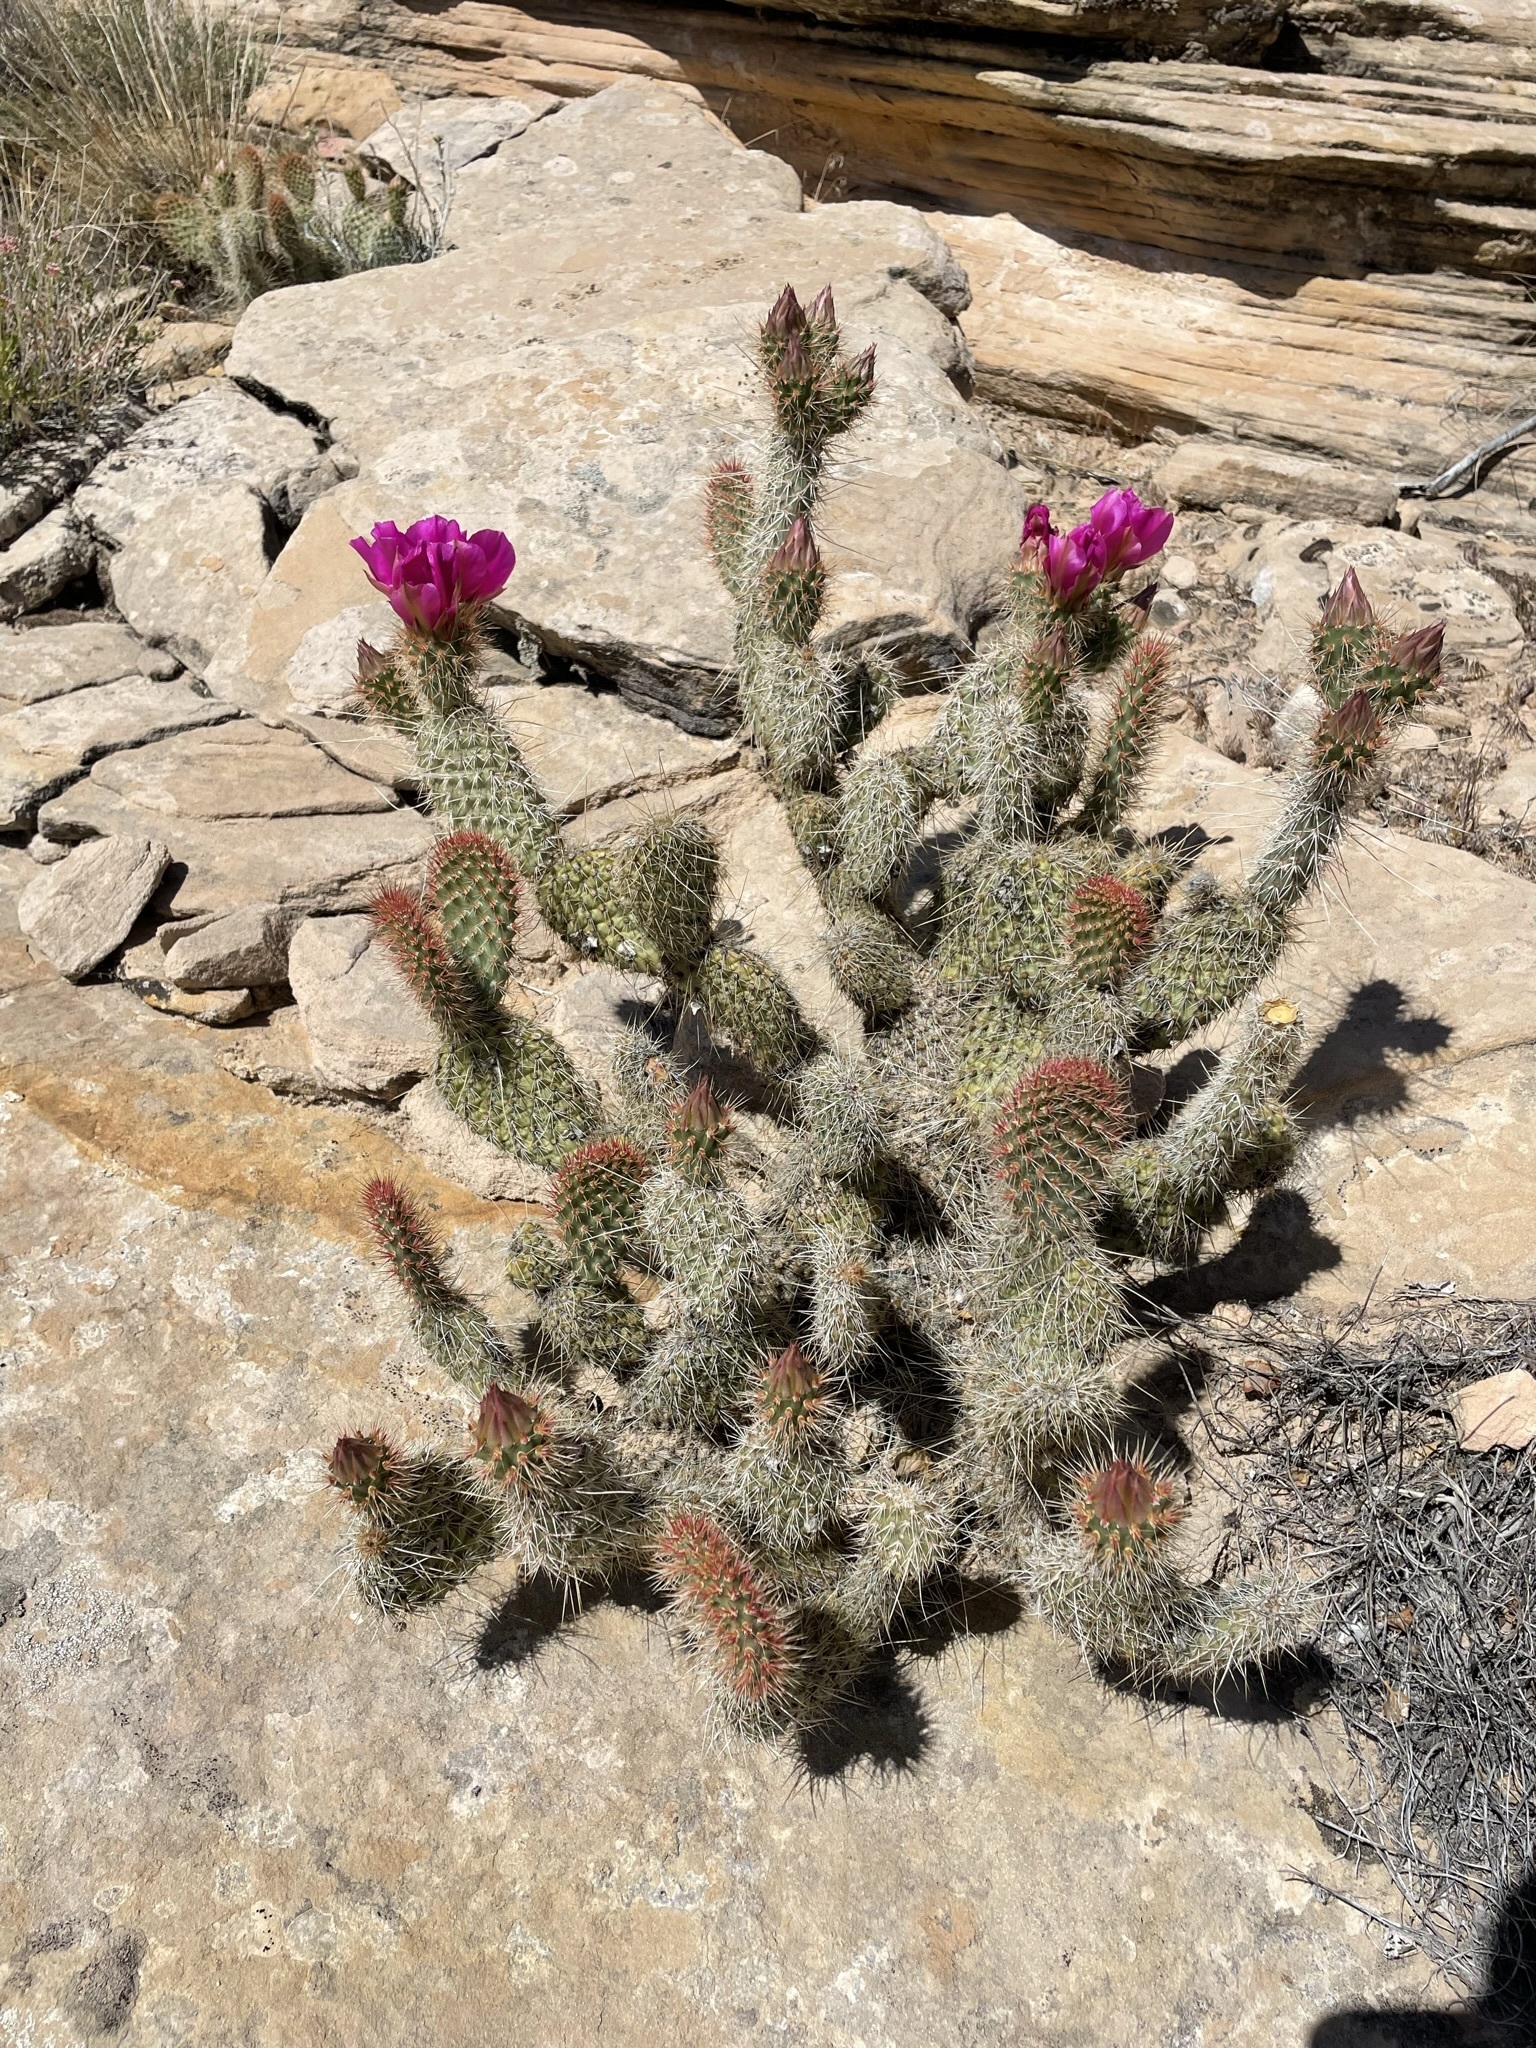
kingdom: Plantae
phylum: Tracheophyta
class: Magnoliopsida
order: Caryophyllales
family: Cactaceae
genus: Opuntia
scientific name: Opuntia polyacantha
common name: Plains prickly-pear
